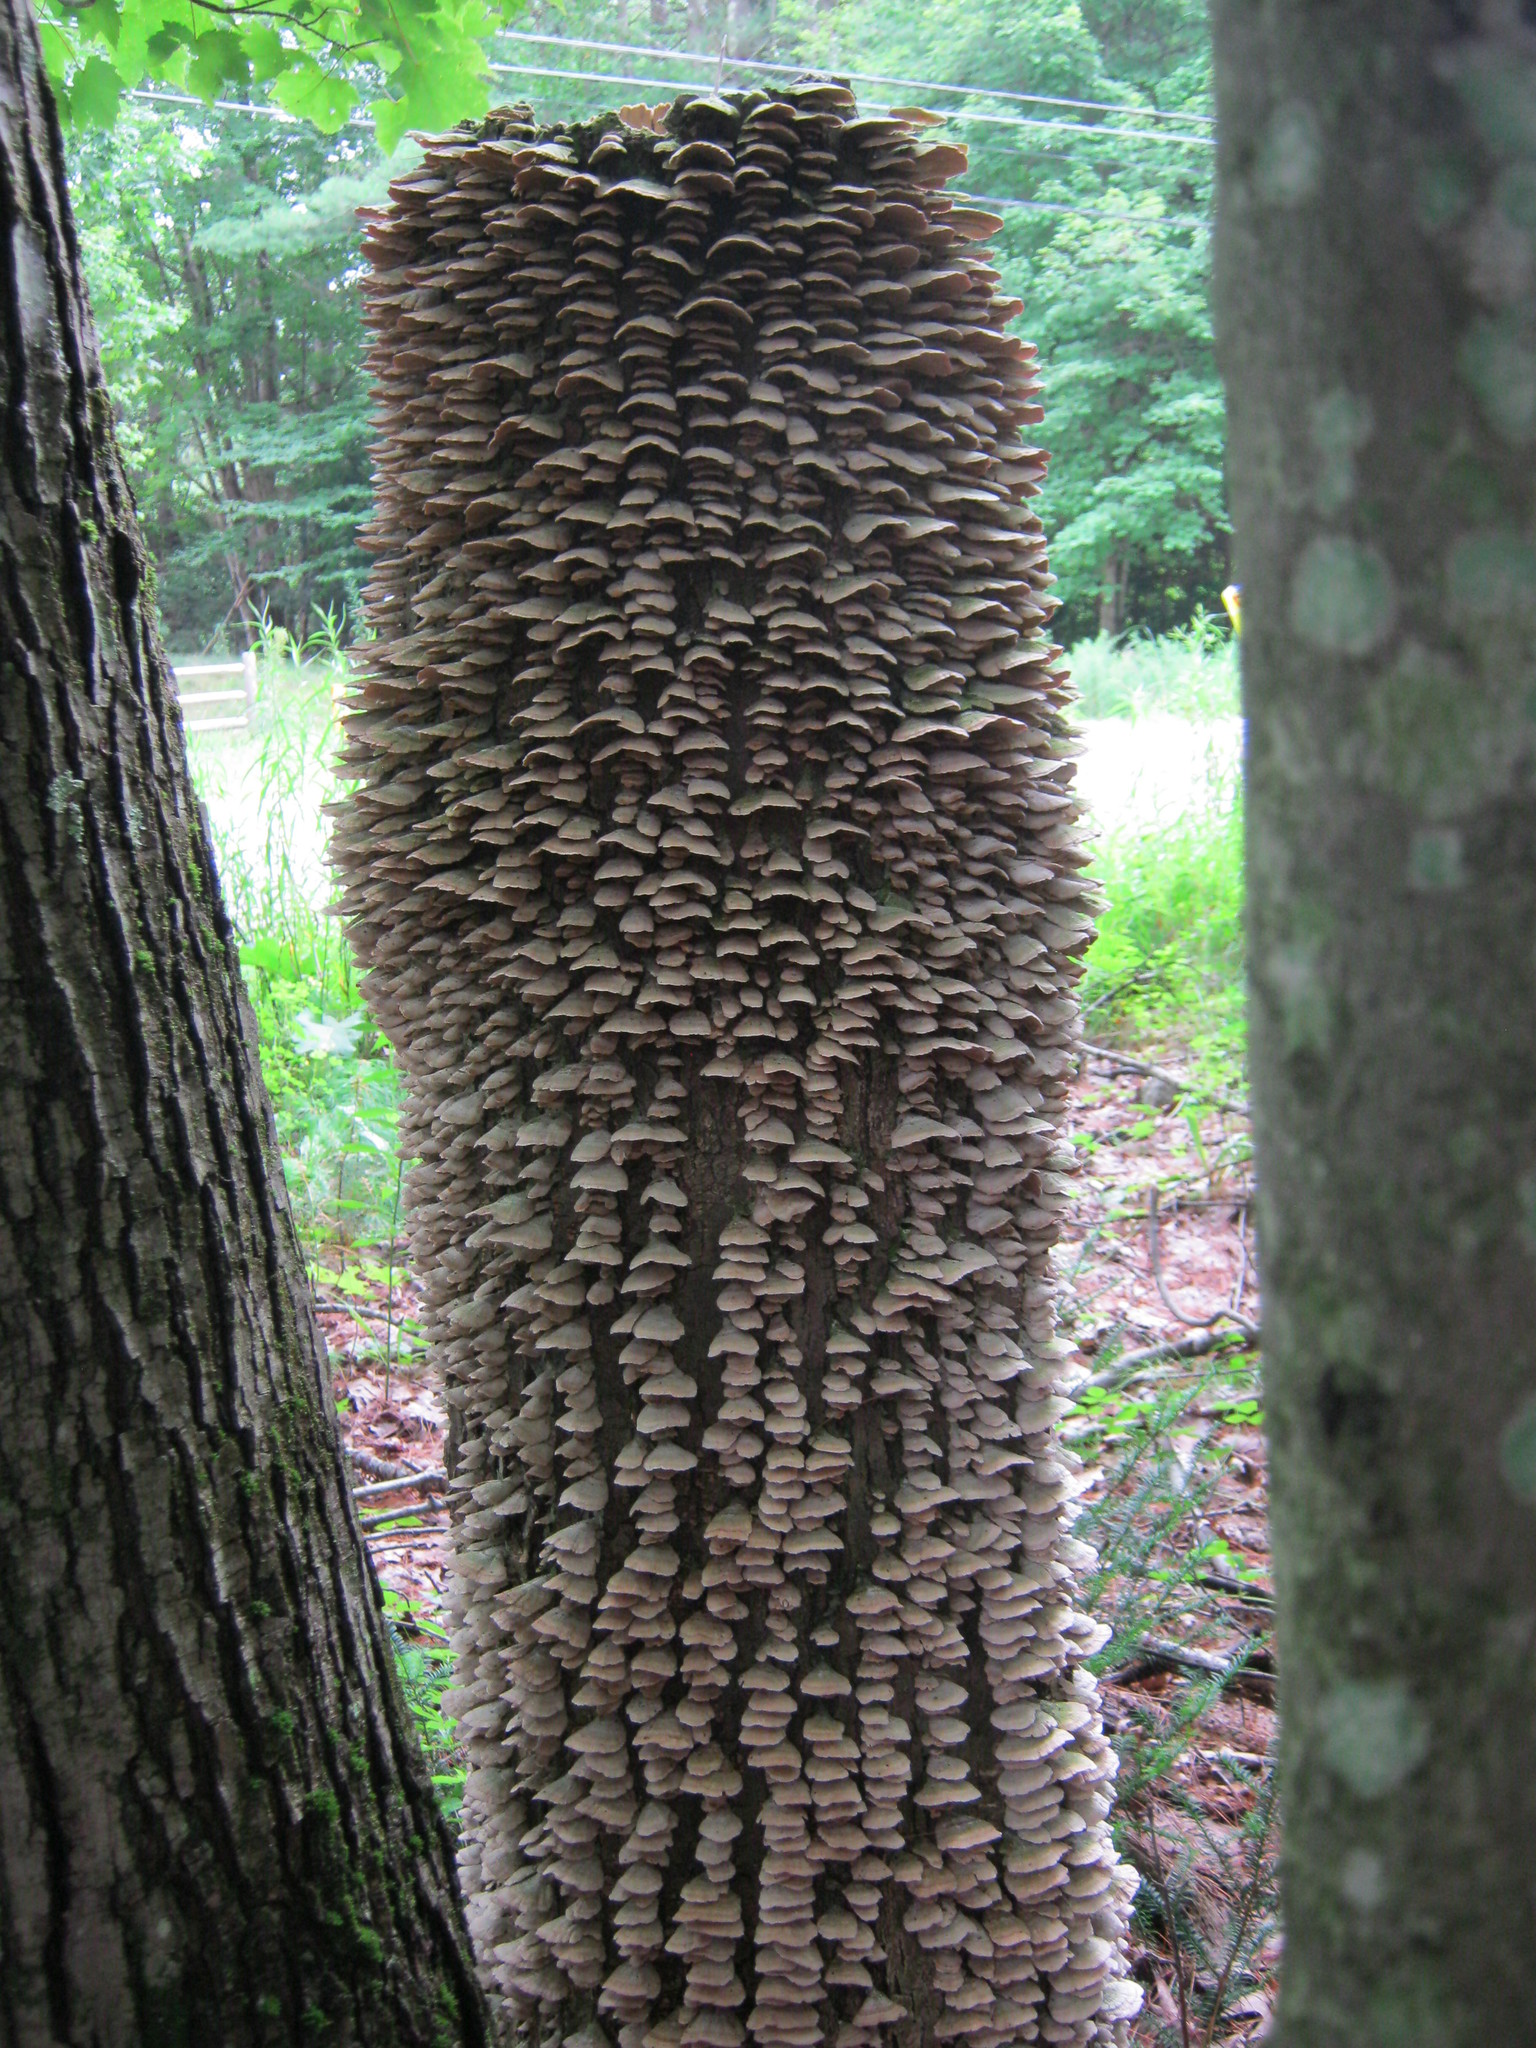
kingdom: Fungi
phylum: Basidiomycota
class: Agaricomycetes
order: Hymenochaetales
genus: Trichaptum
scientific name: Trichaptum biforme
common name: Violet-toothed polypore
